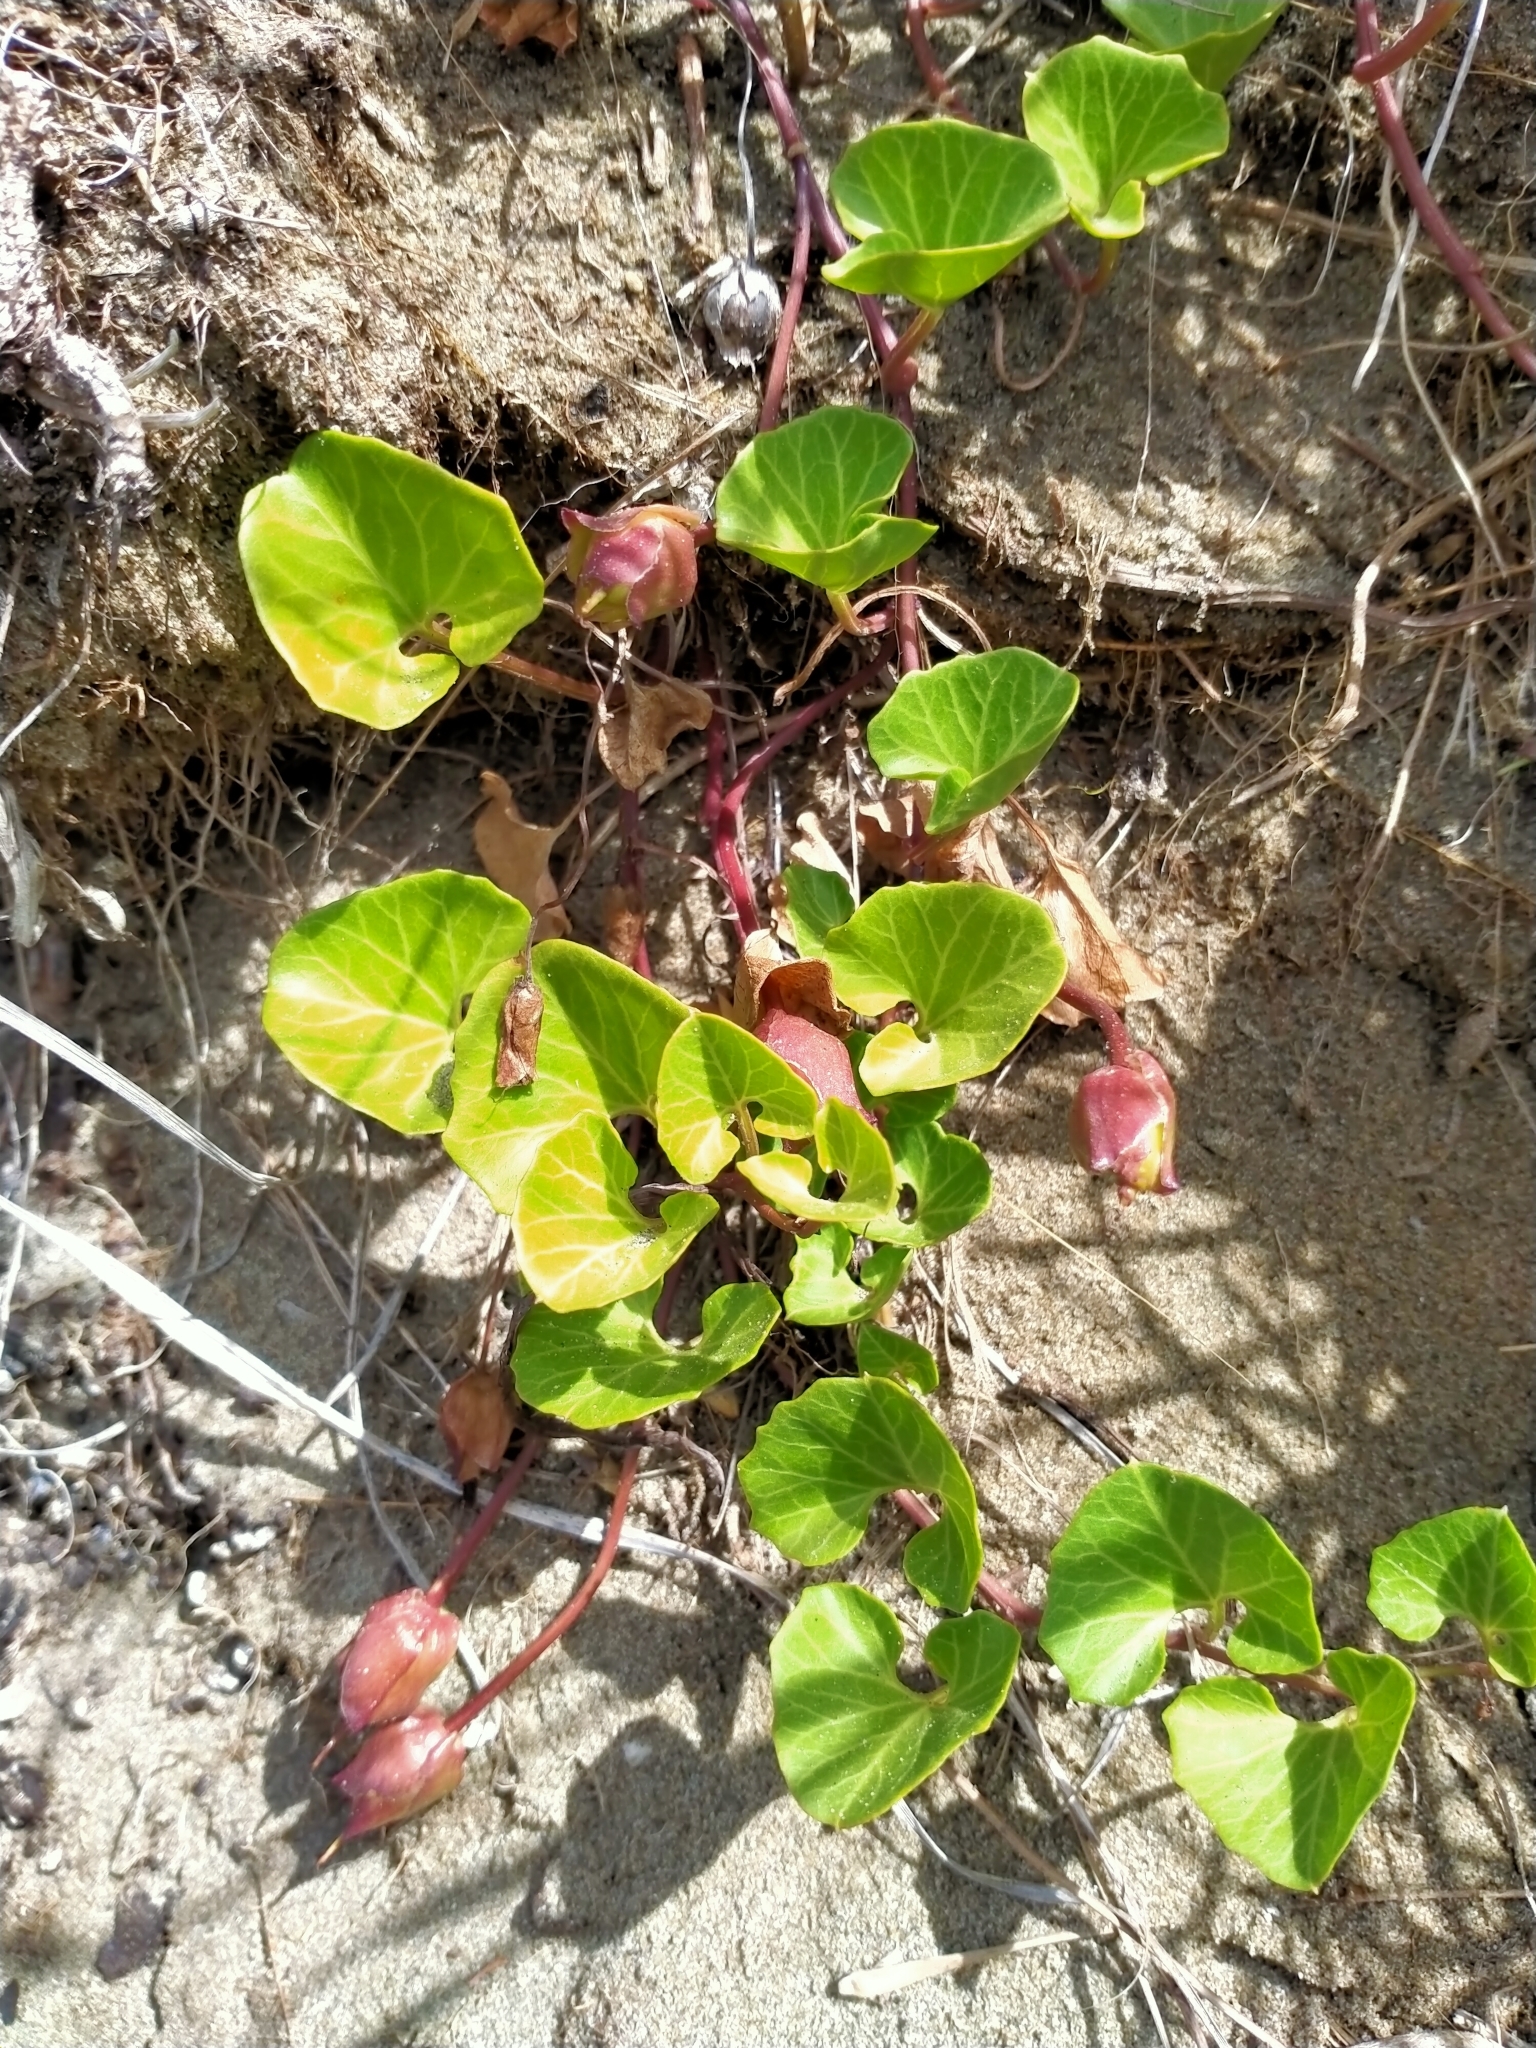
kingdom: Plantae
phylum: Tracheophyta
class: Magnoliopsida
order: Solanales
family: Convolvulaceae
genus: Calystegia
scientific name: Calystegia soldanella
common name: Sea bindweed
